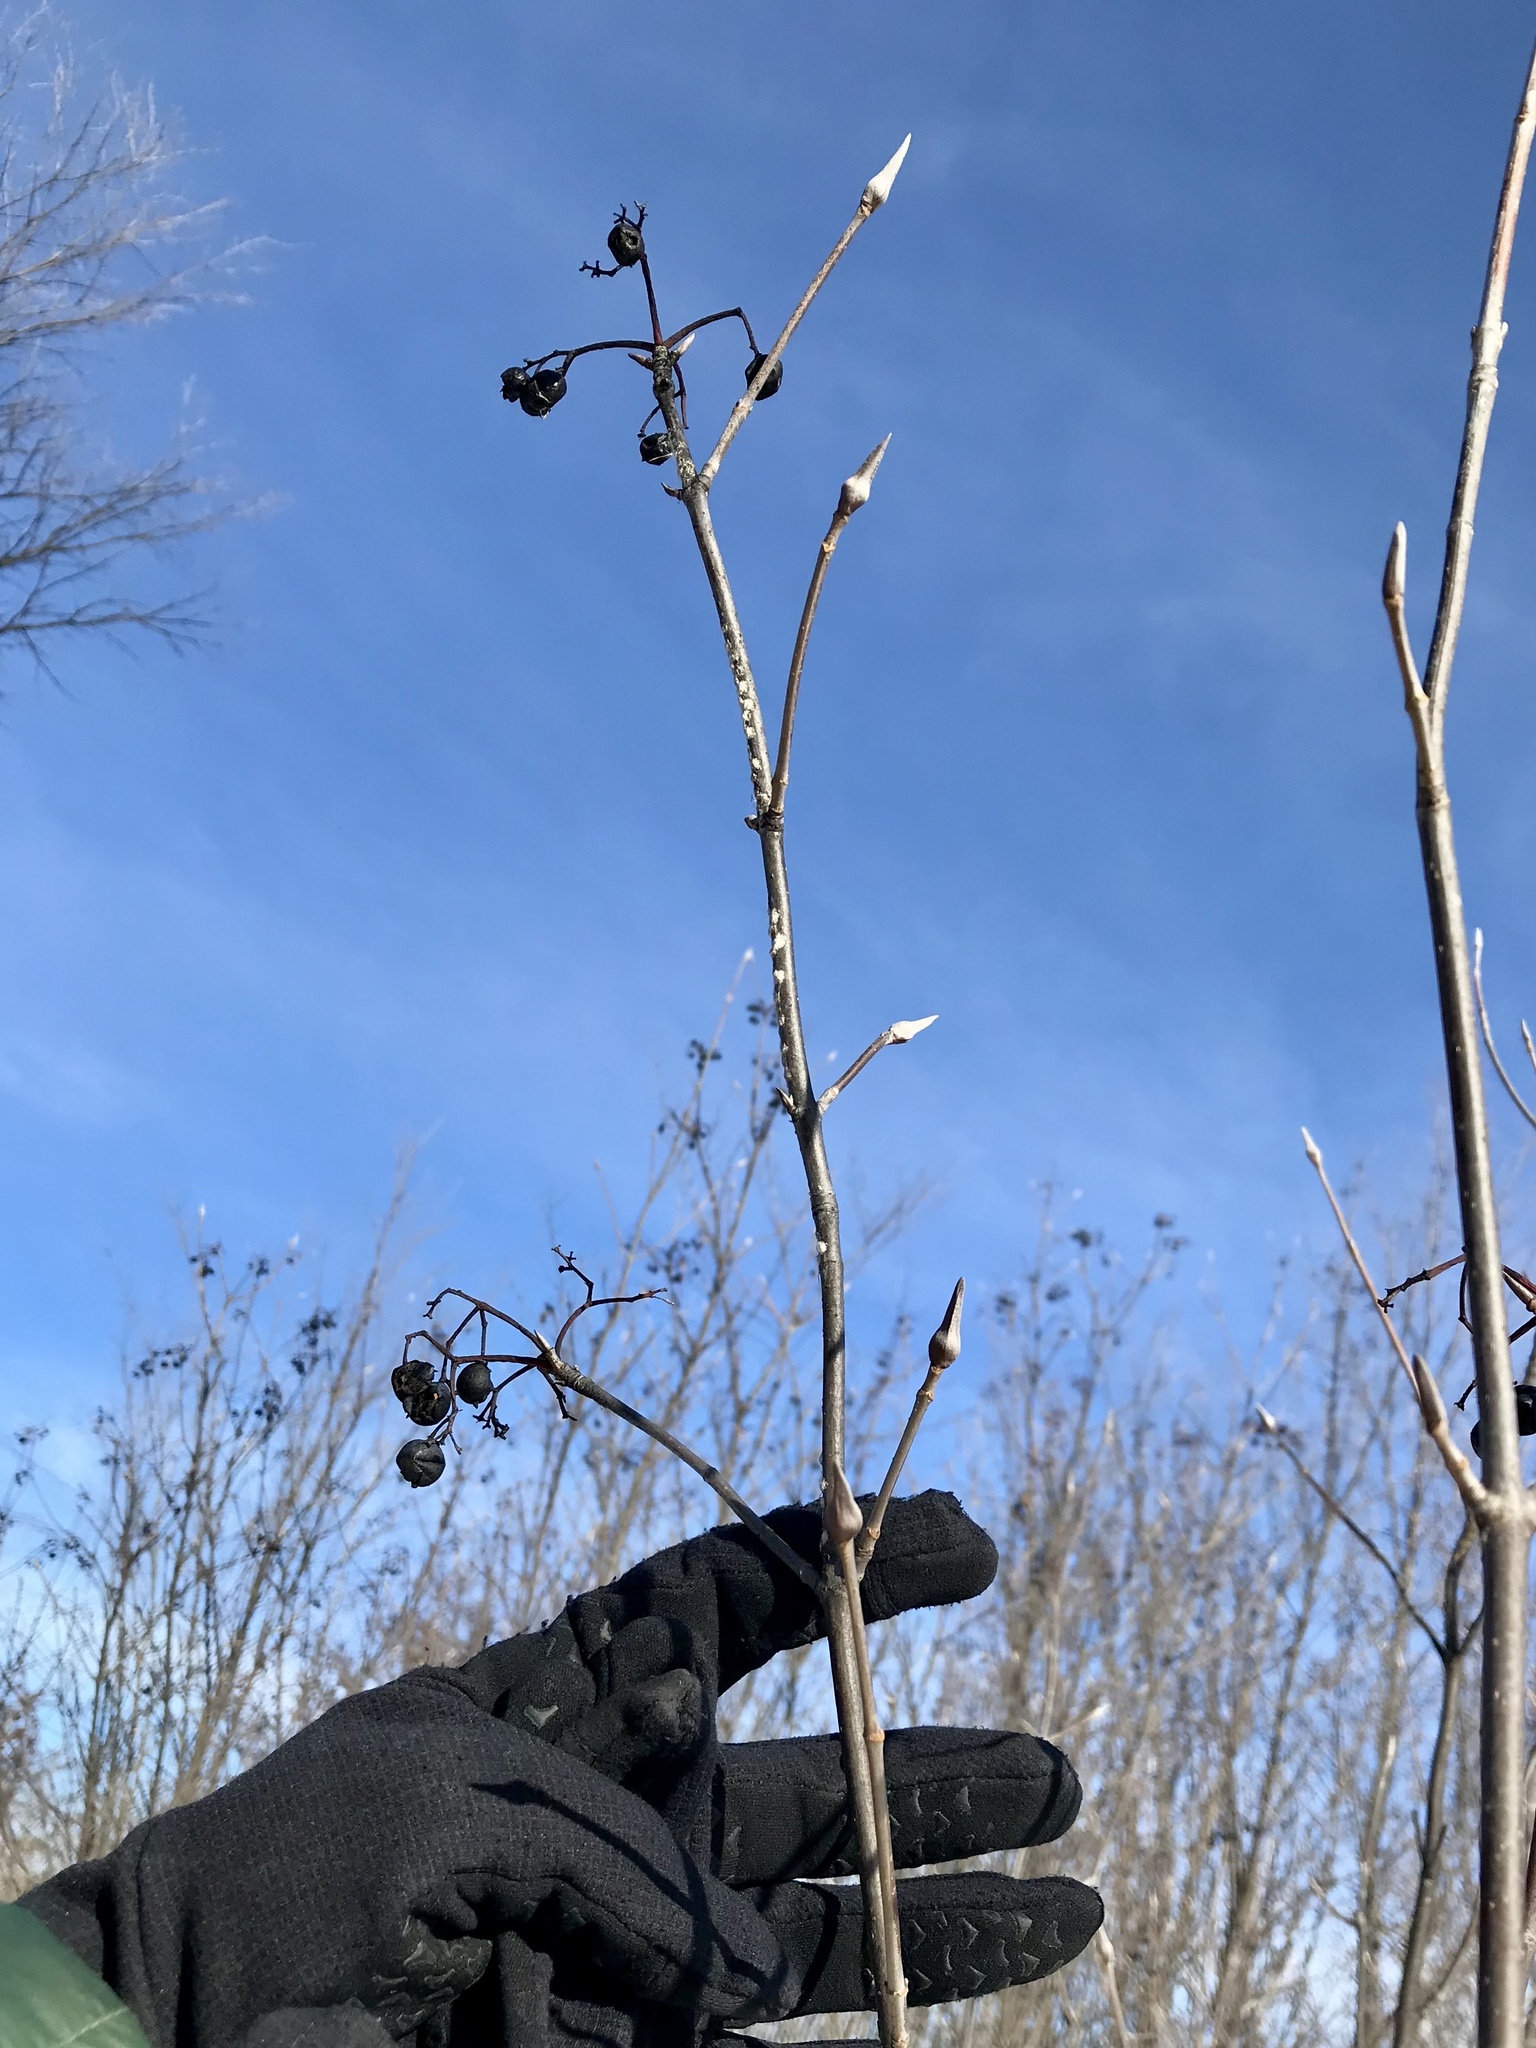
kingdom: Plantae
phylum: Tracheophyta
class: Magnoliopsida
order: Dipsacales
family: Viburnaceae
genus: Viburnum
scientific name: Viburnum lentago
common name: Black haw
